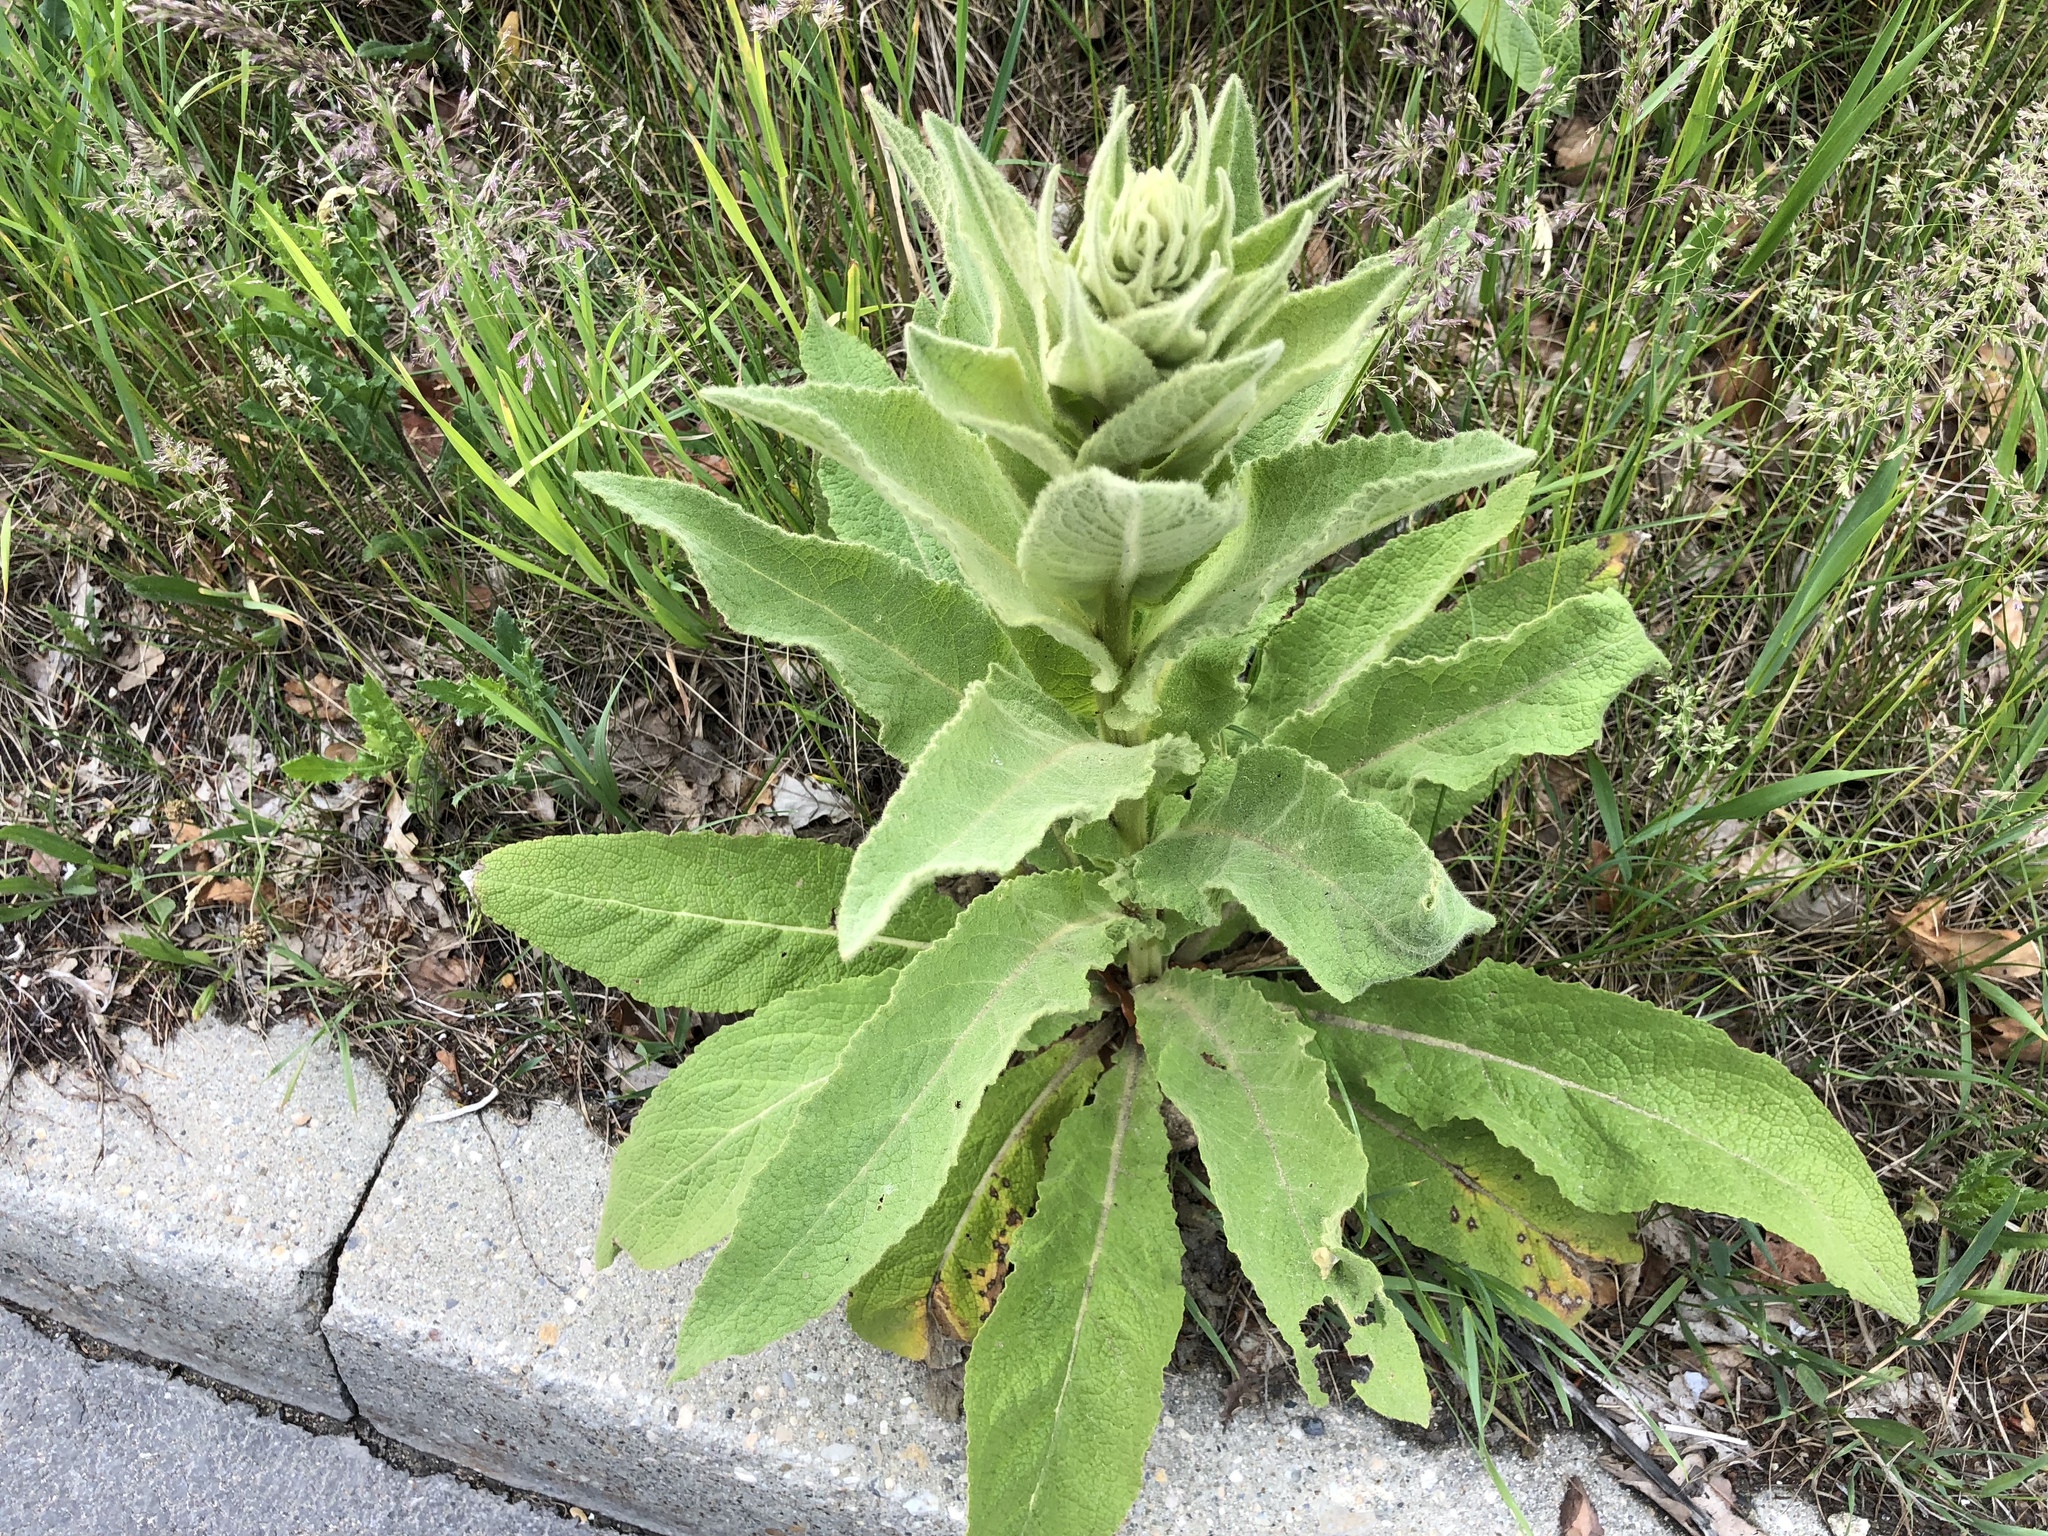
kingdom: Plantae
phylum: Tracheophyta
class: Magnoliopsida
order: Lamiales
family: Scrophulariaceae
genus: Verbascum
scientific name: Verbascum thapsus
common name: Common mullein
